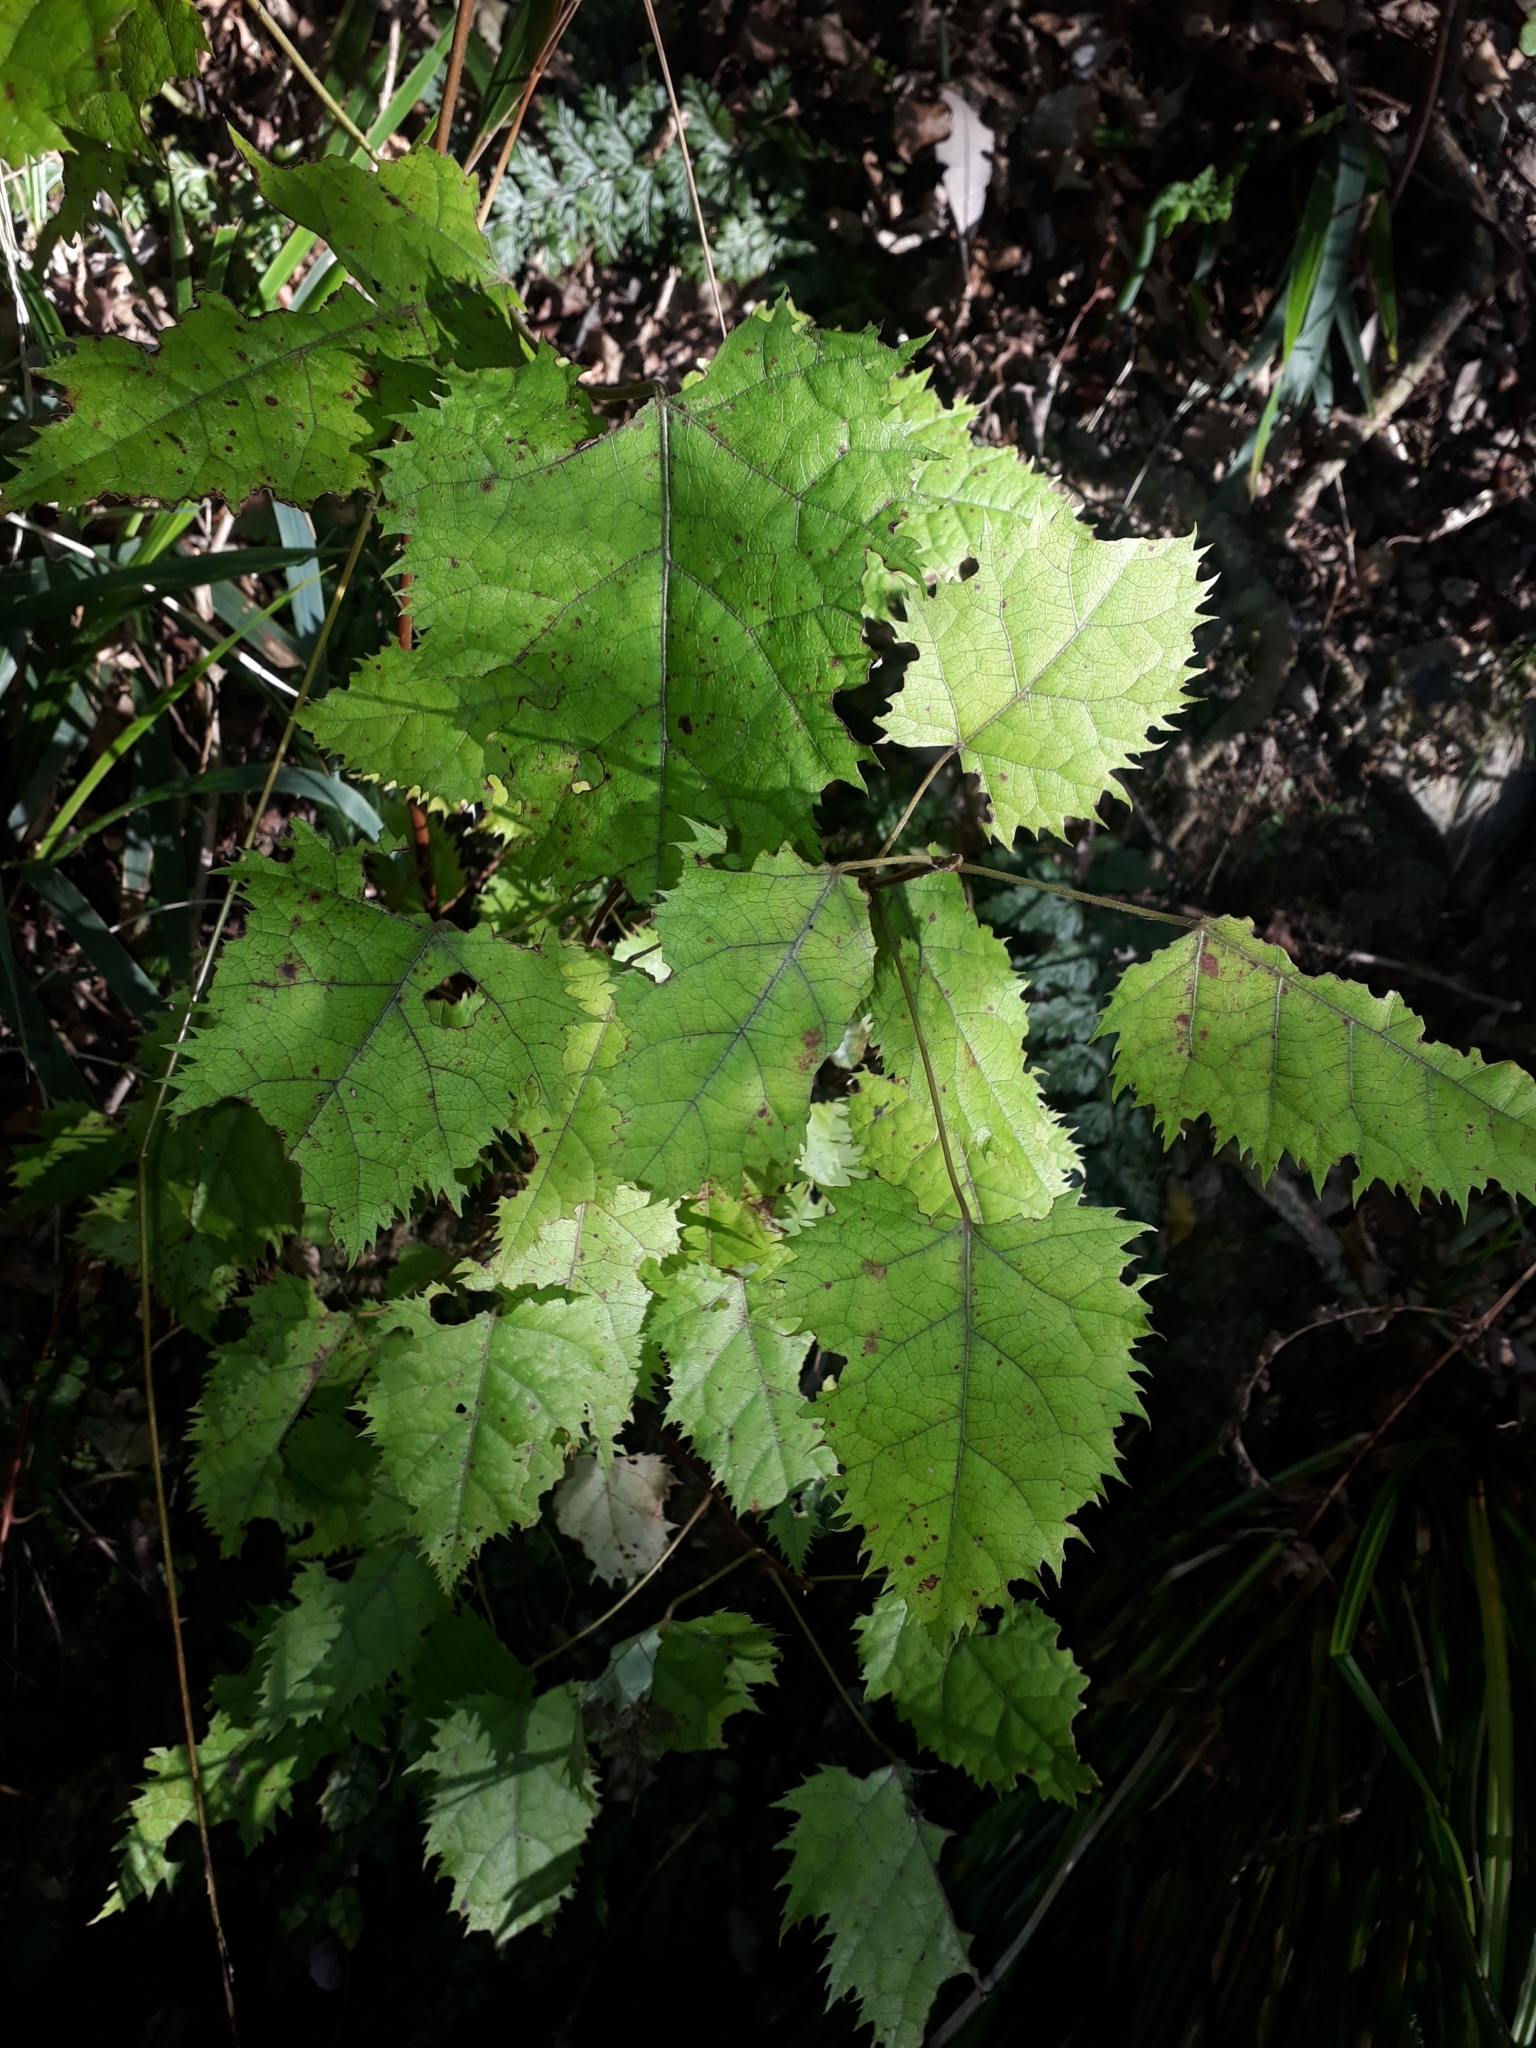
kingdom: Plantae
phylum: Tracheophyta
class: Magnoliopsida
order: Oxalidales
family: Elaeocarpaceae
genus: Aristotelia
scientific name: Aristotelia serrata
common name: New zealand wineberry
